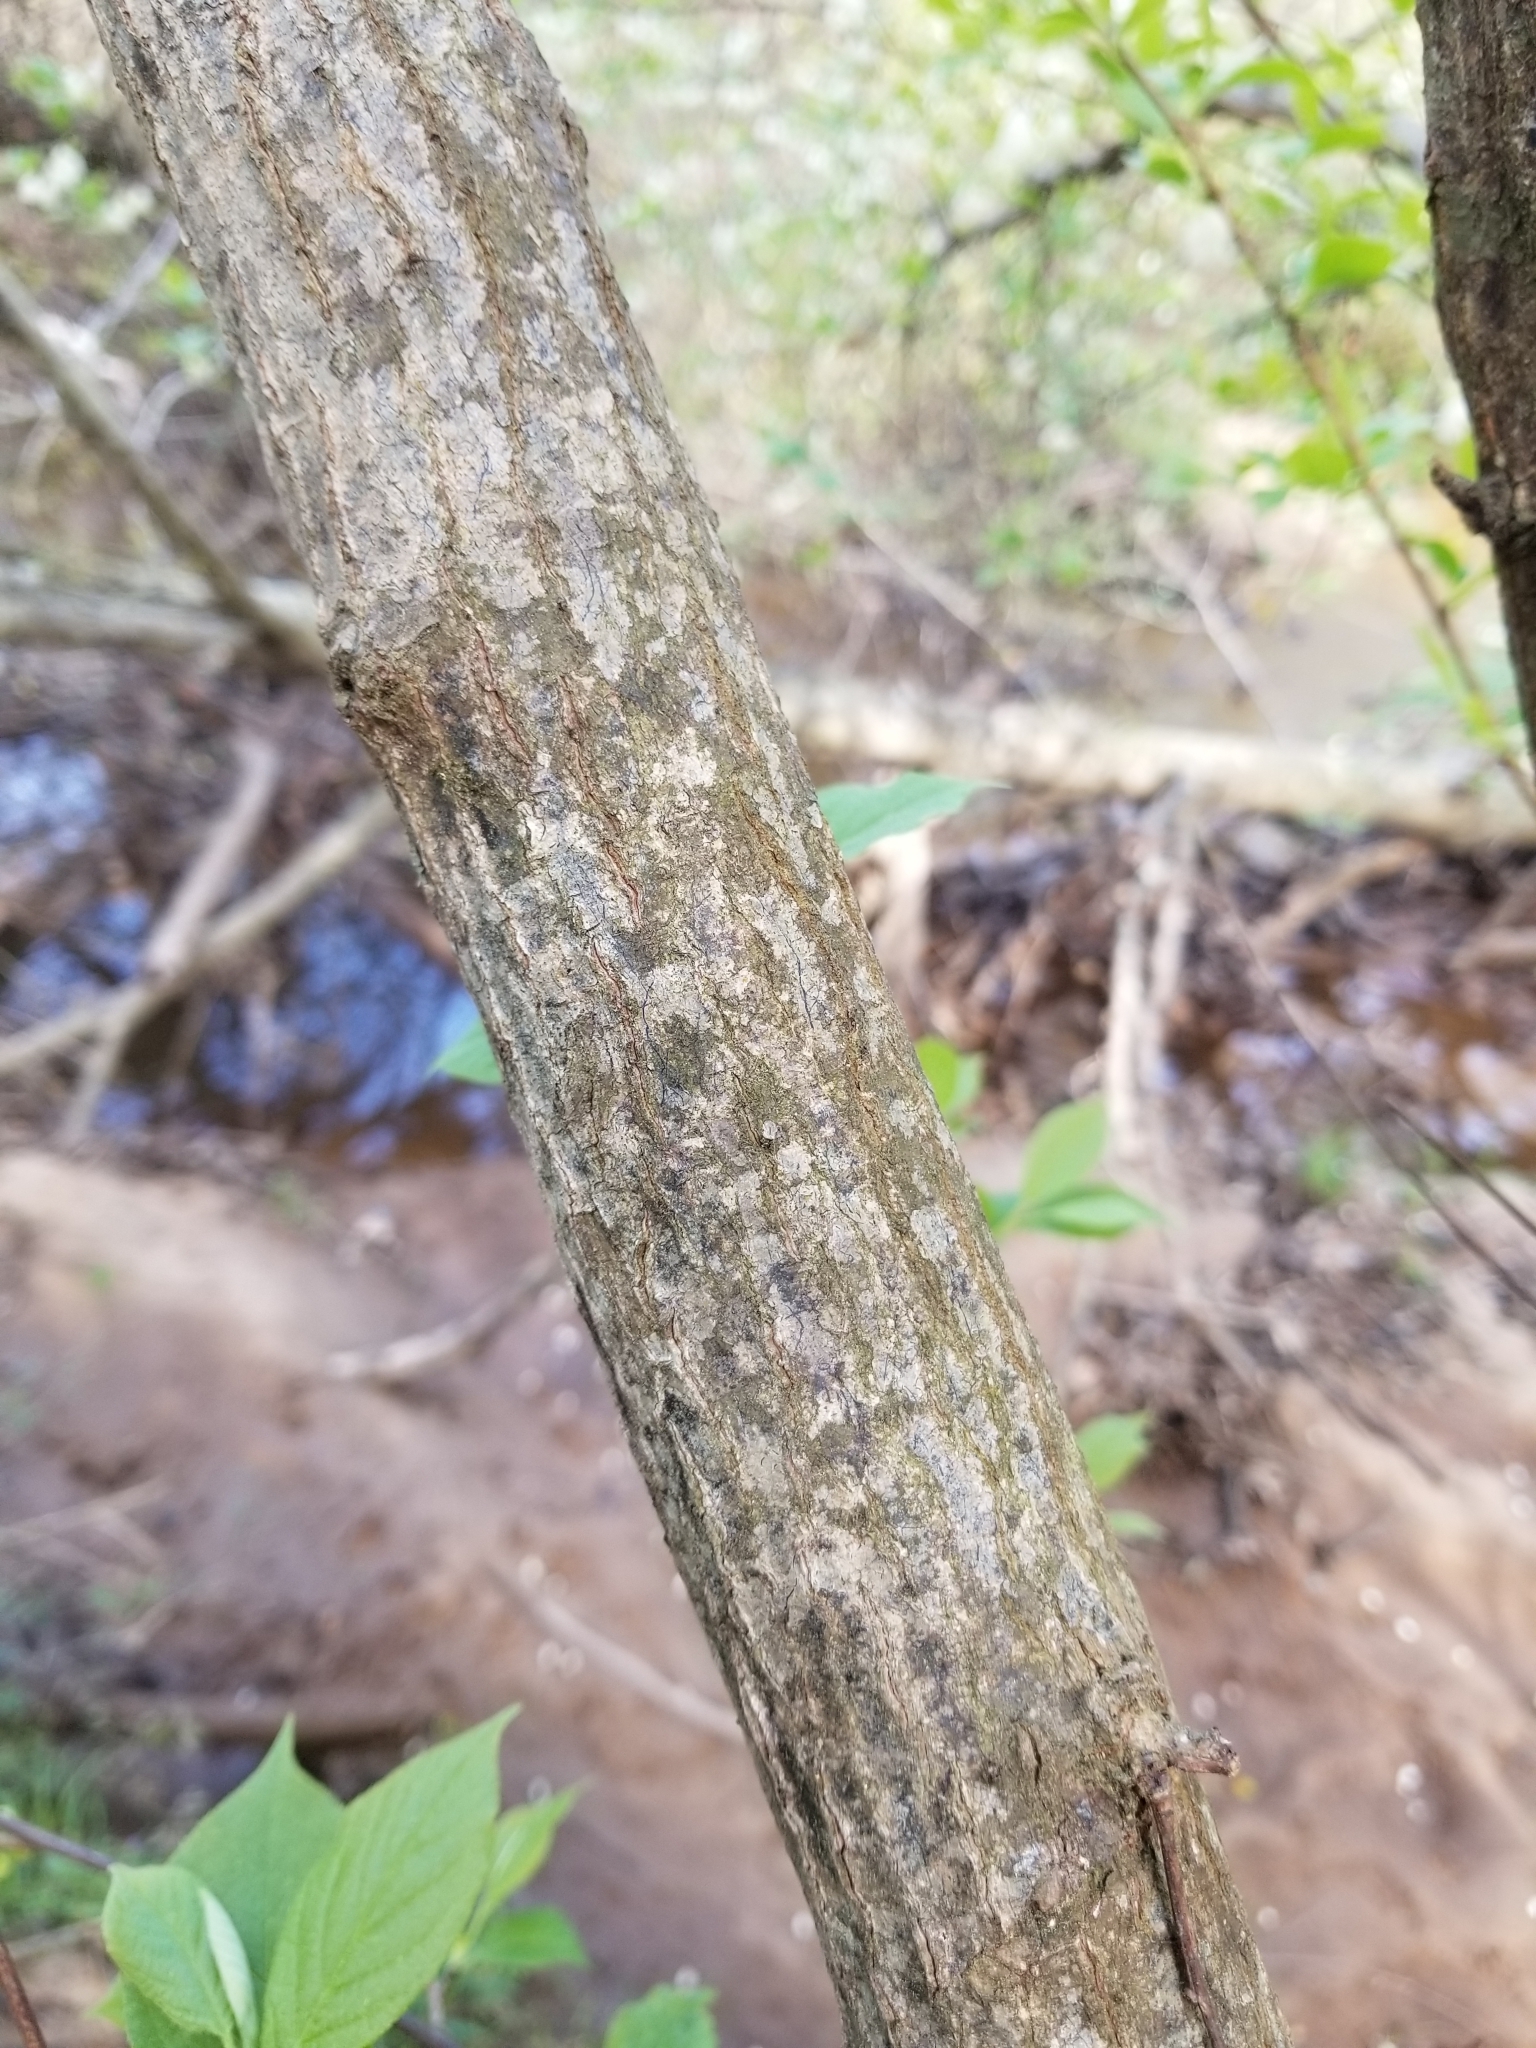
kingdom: Plantae
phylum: Tracheophyta
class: Magnoliopsida
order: Ericales
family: Styracaceae
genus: Halesia
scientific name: Halesia carolina
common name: Carolina silverbell
